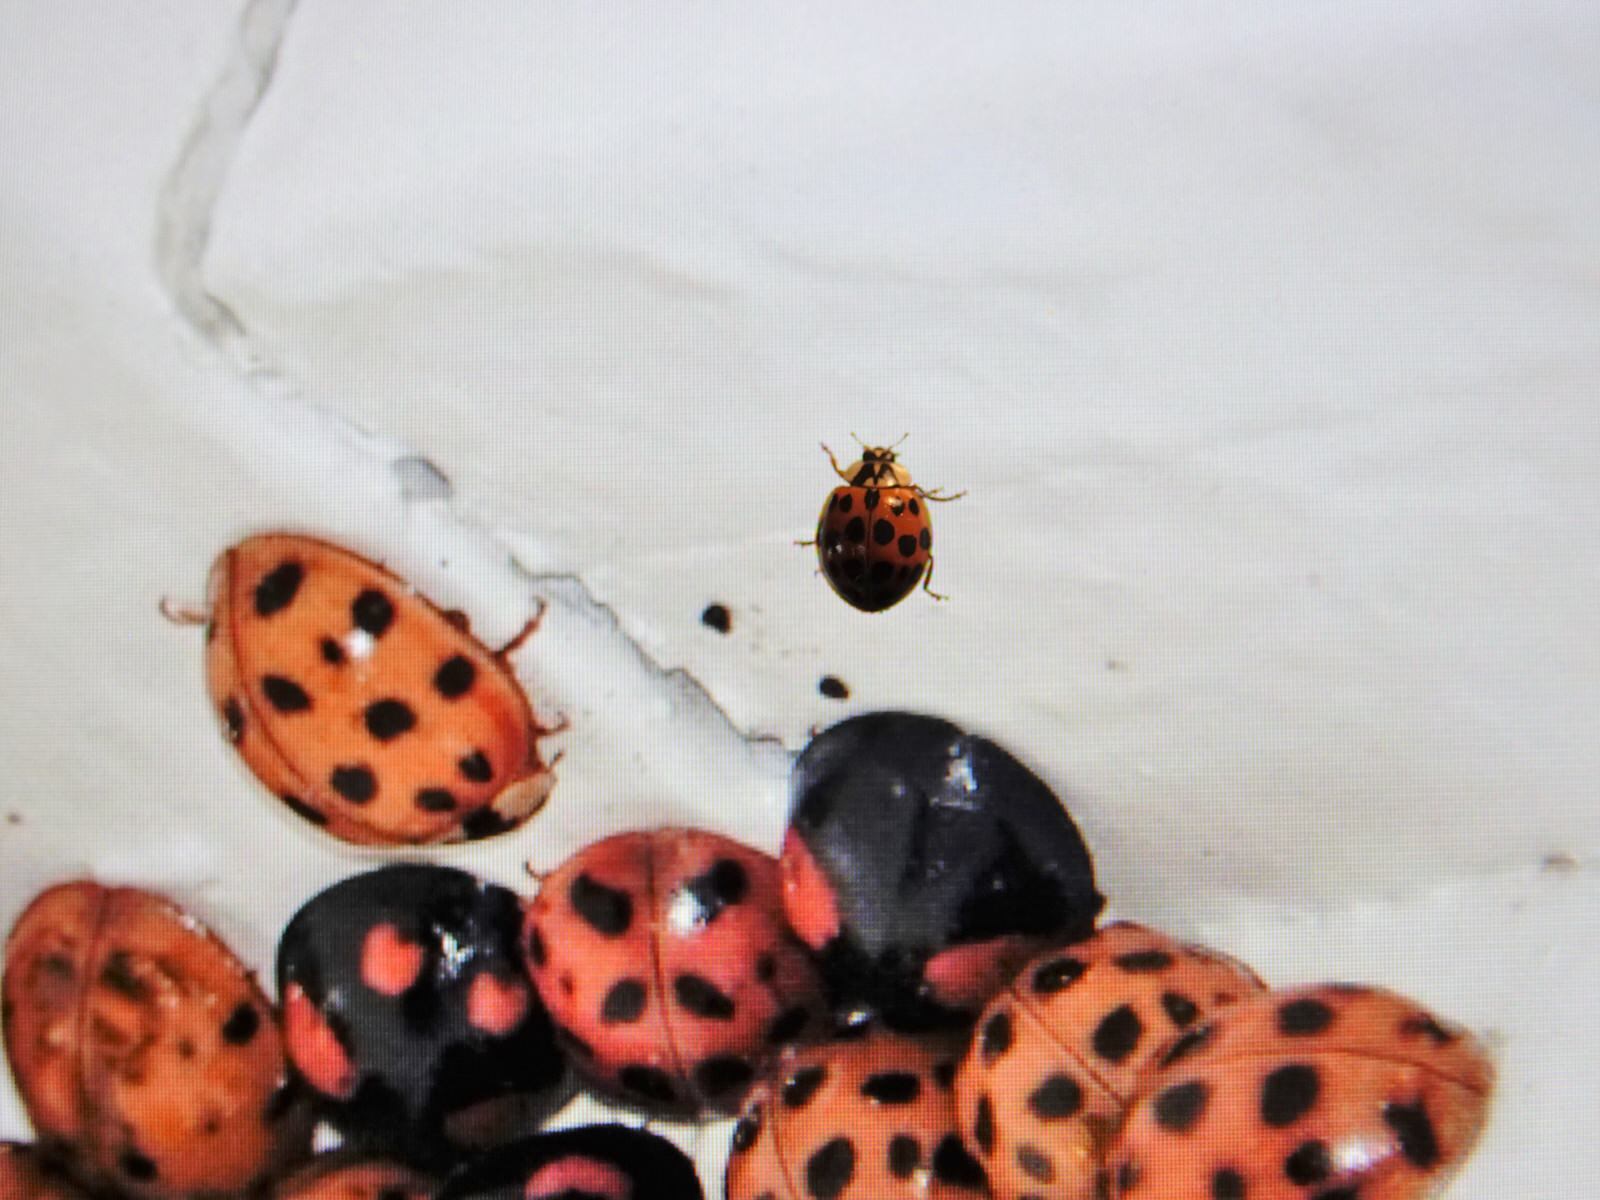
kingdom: Animalia
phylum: Arthropoda
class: Insecta
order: Coleoptera
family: Coccinellidae
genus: Harmonia
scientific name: Harmonia axyridis
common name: Harlequin ladybird
